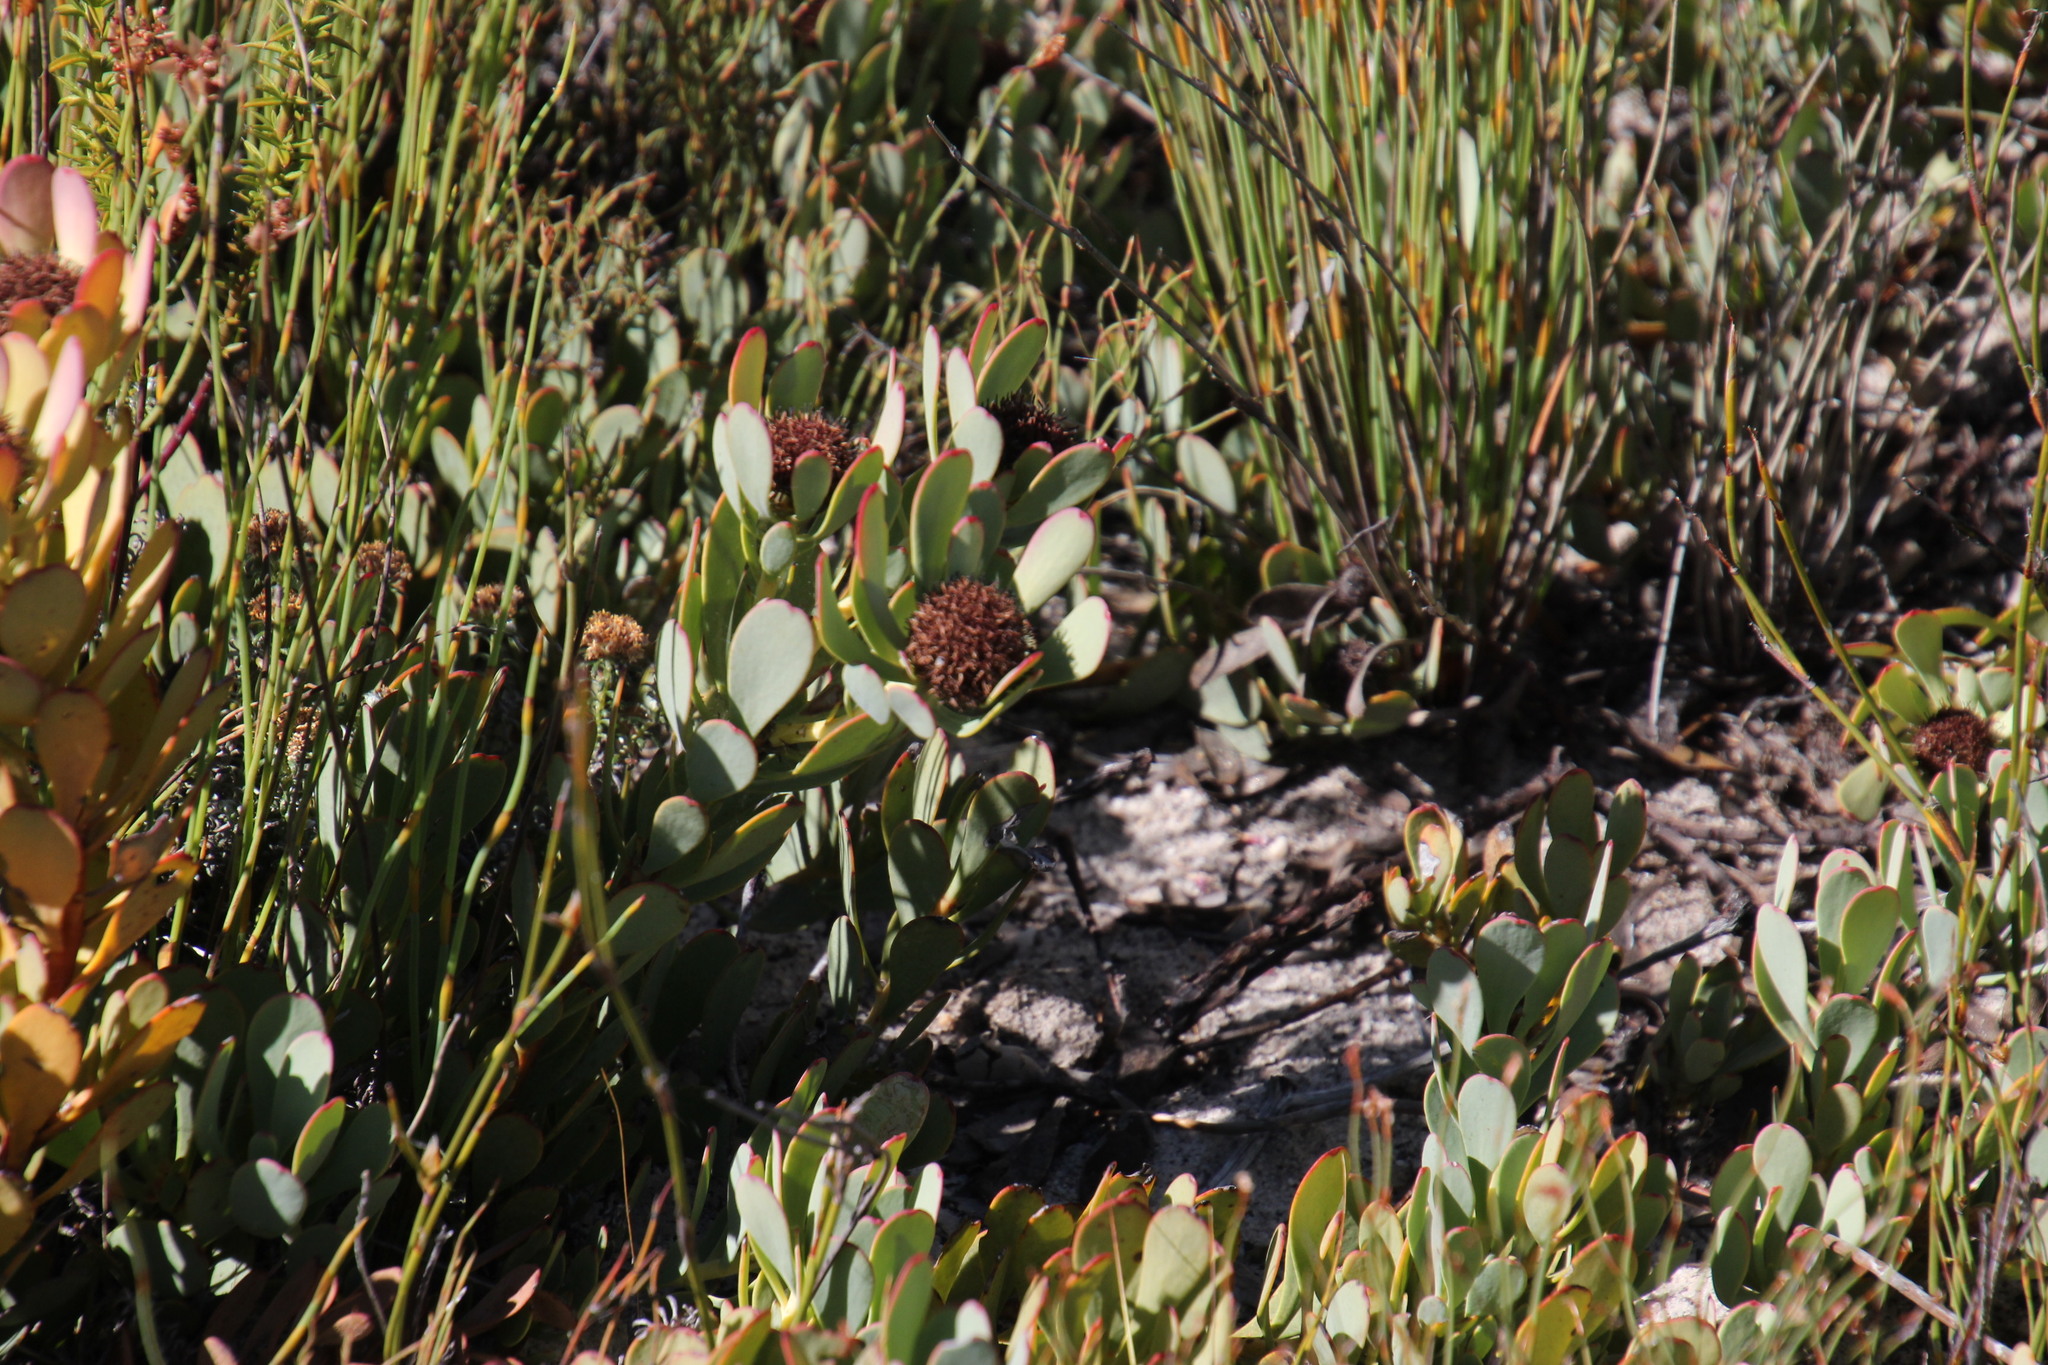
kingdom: Plantae
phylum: Tracheophyta
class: Magnoliopsida
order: Proteales
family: Proteaceae
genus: Leucadendron
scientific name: Leucadendron arcuatum
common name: Red-edge conebush
